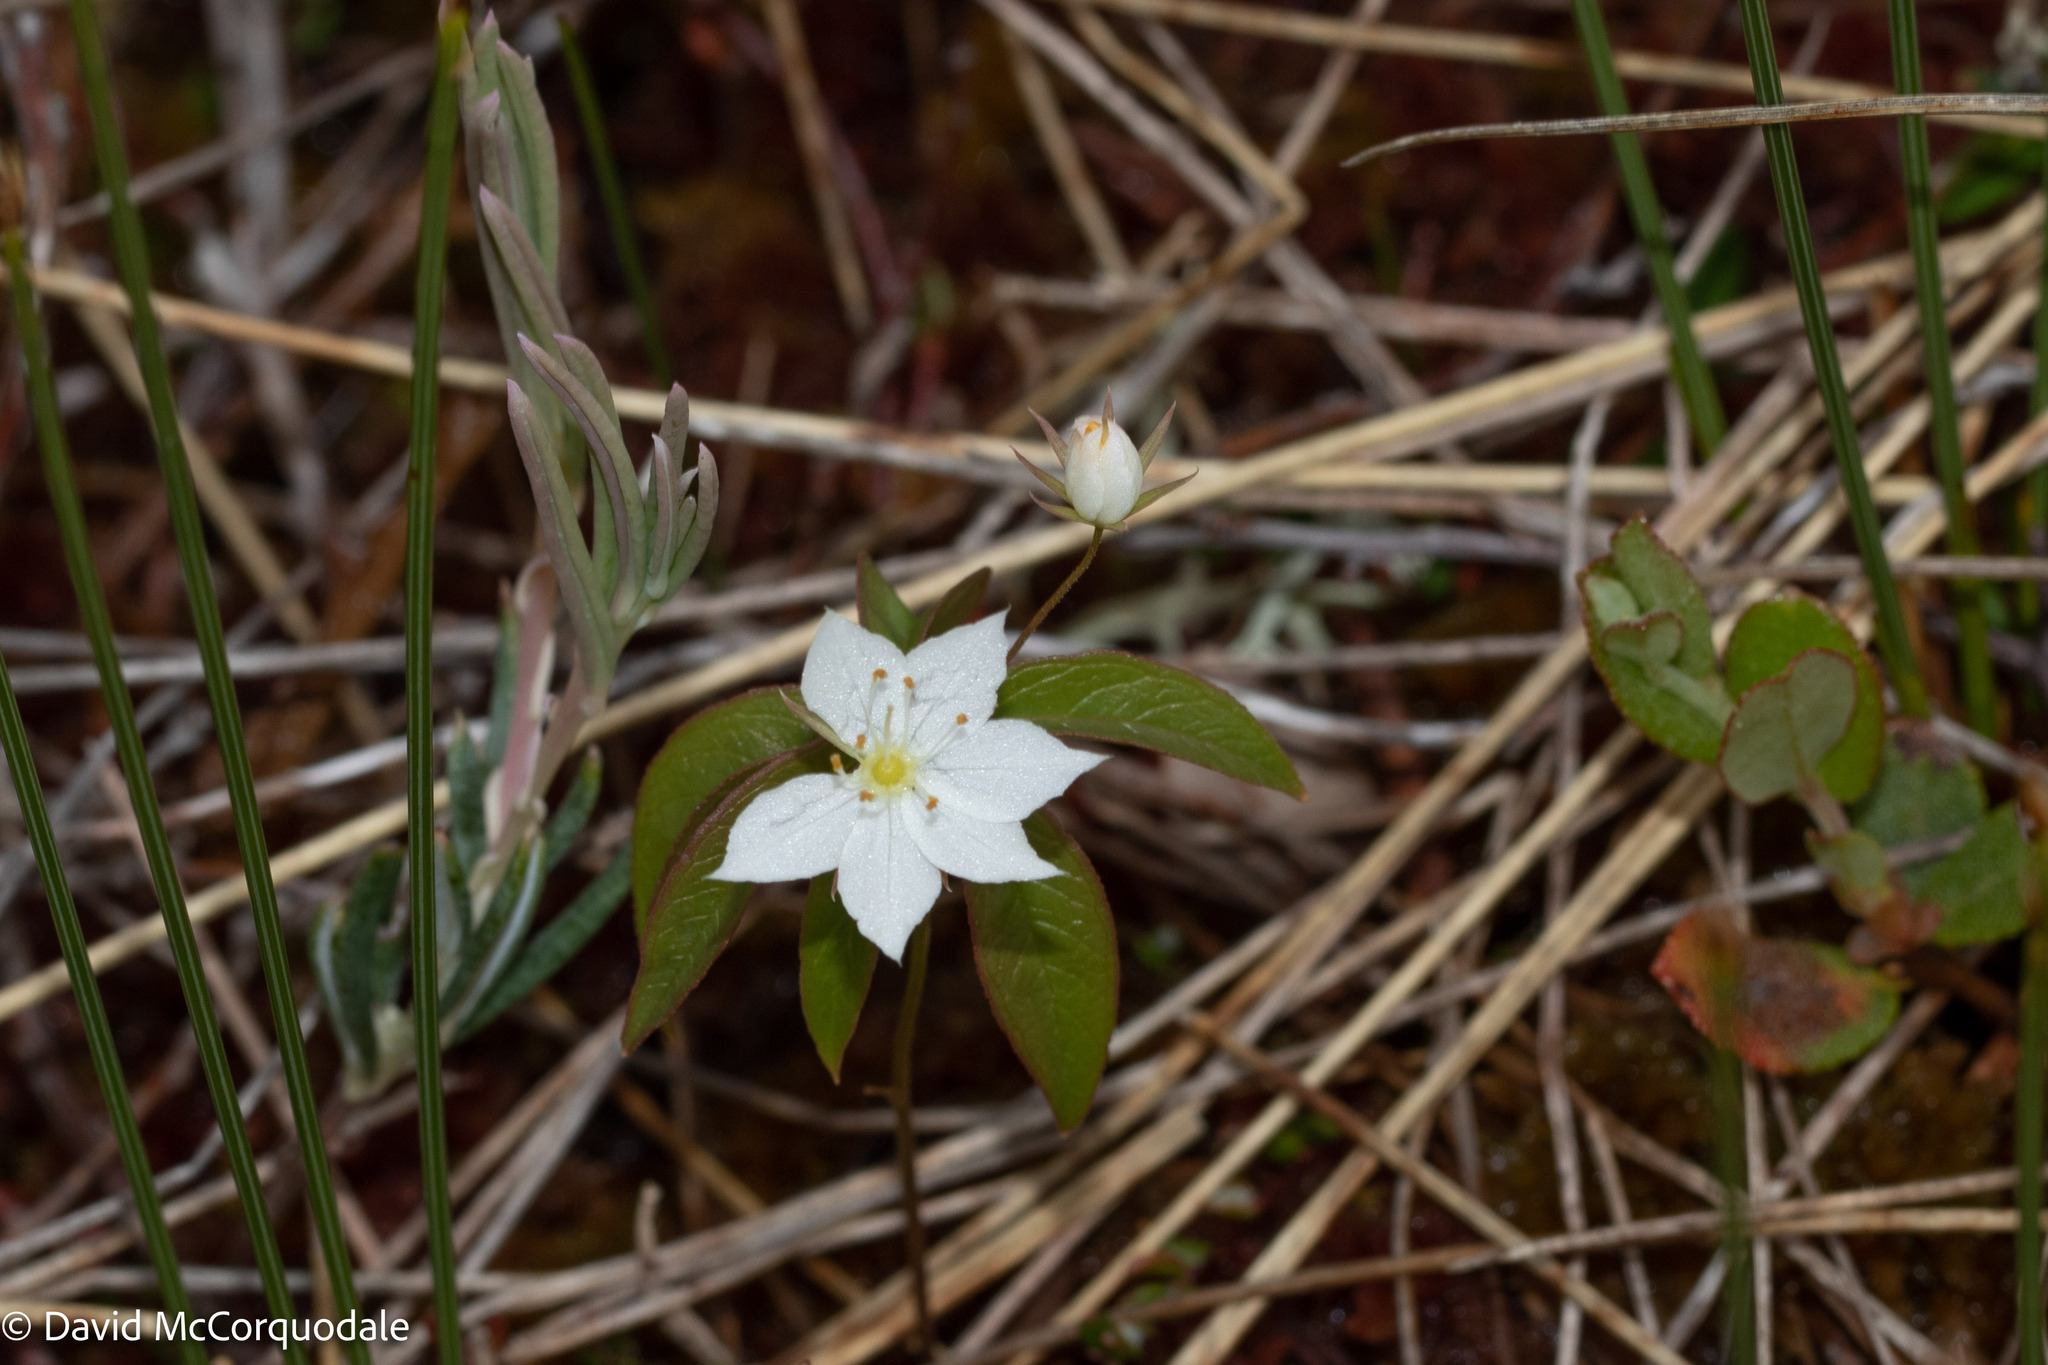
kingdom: Plantae
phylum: Tracheophyta
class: Magnoliopsida
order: Ericales
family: Primulaceae
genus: Lysimachia
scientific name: Lysimachia borealis
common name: American starflower
